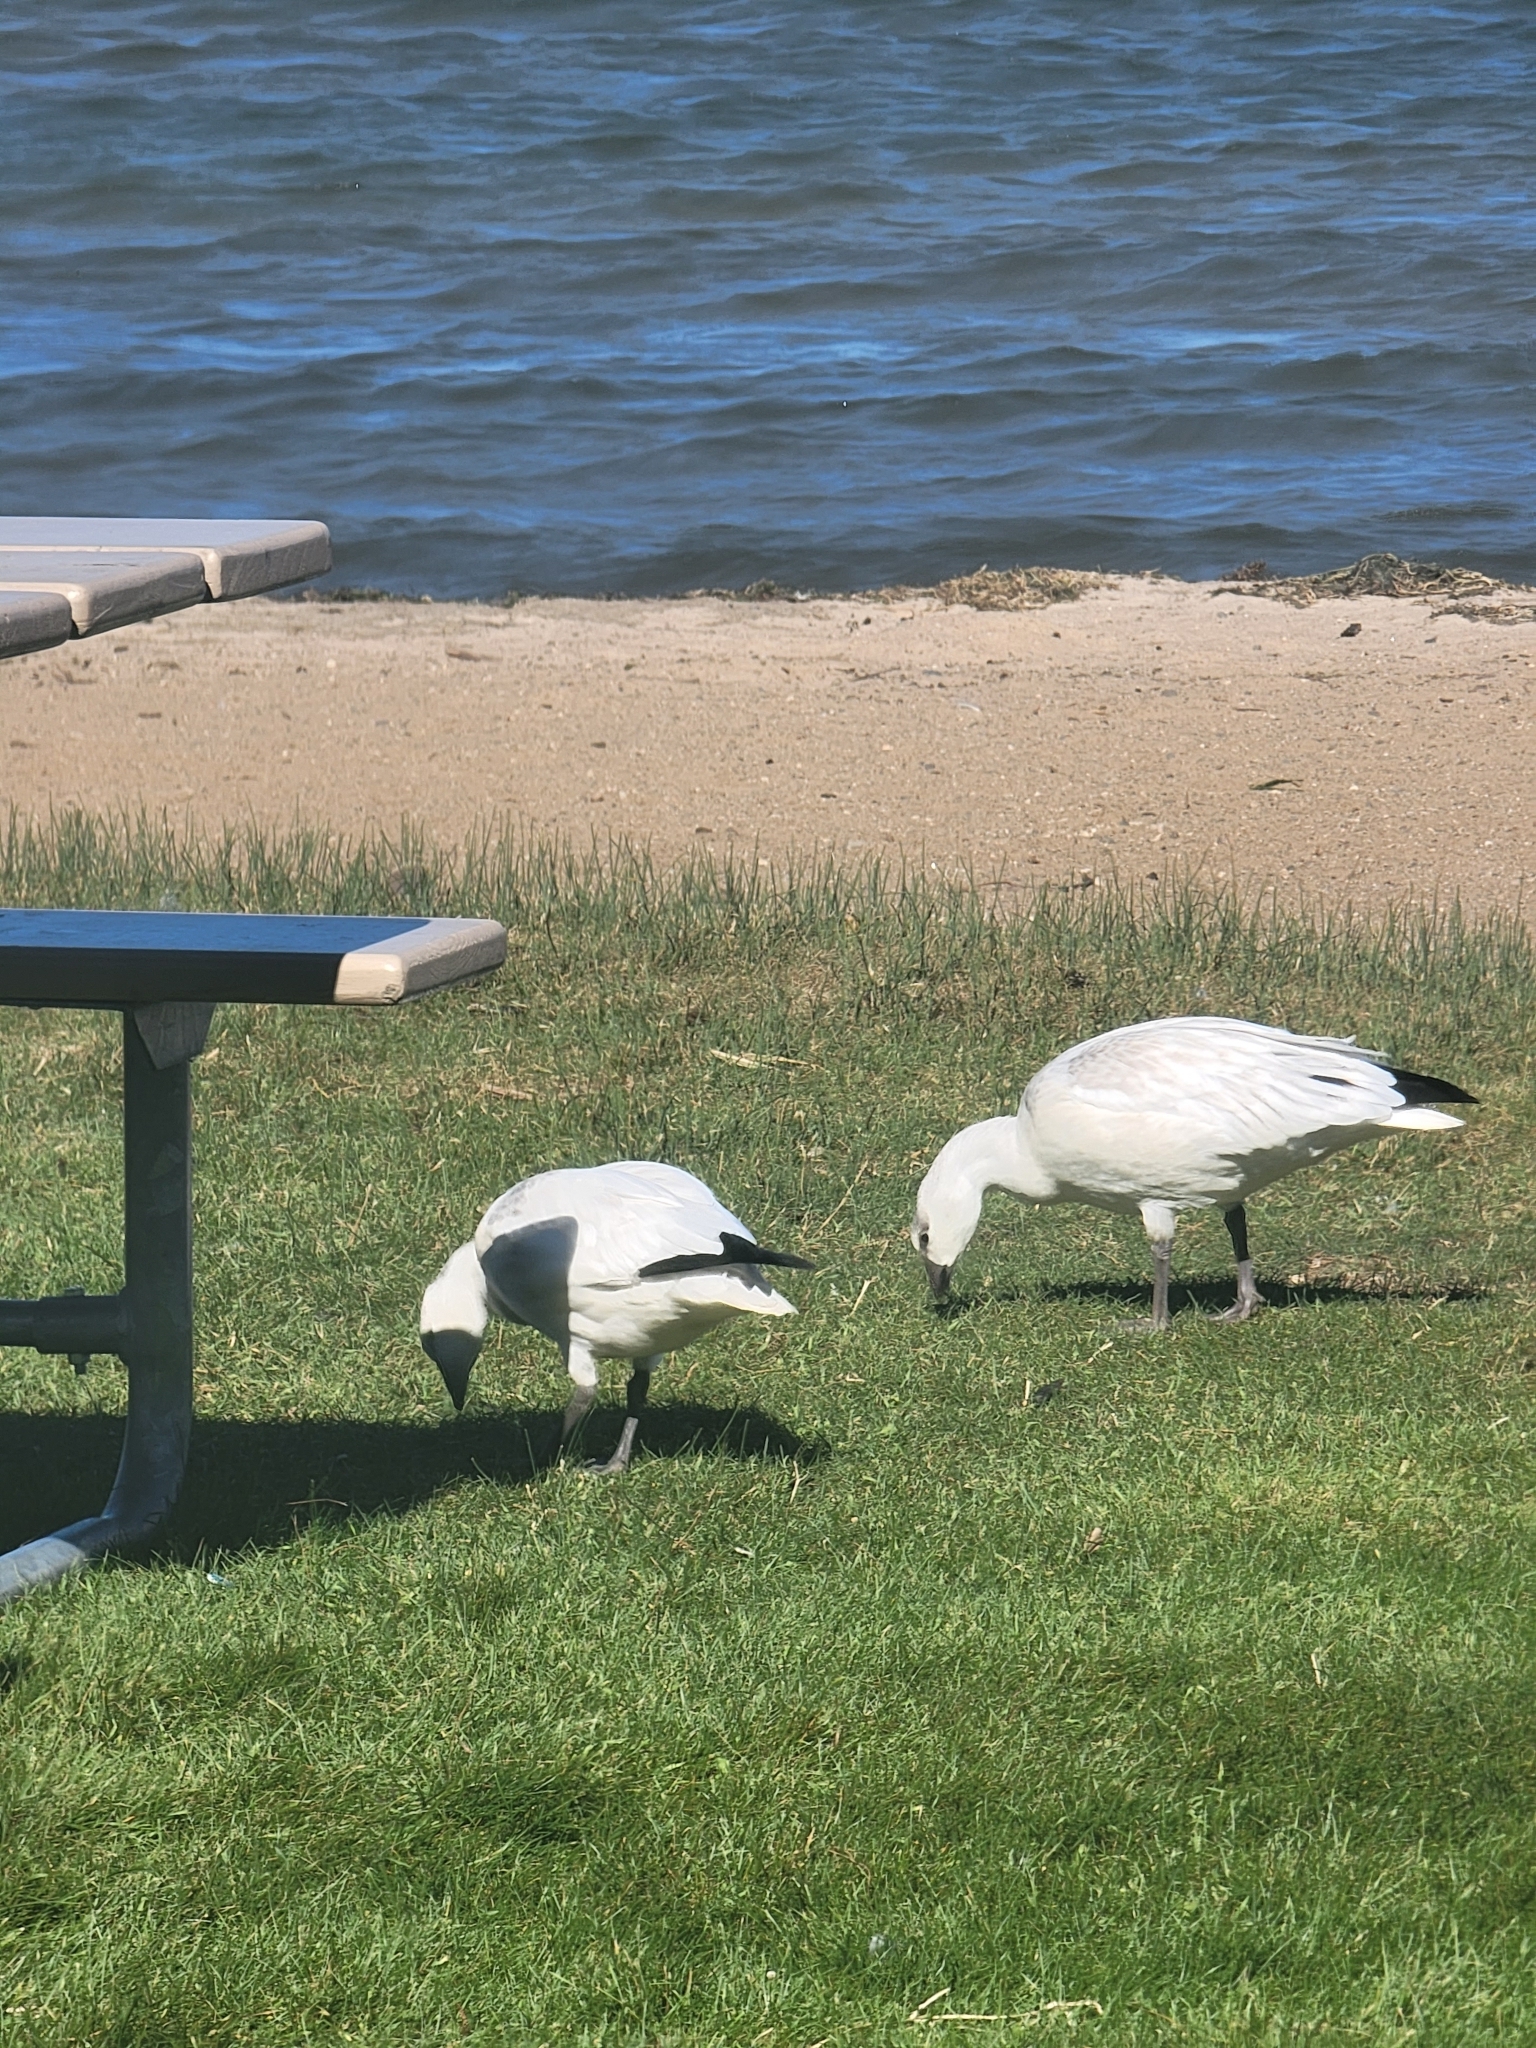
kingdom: Animalia
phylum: Chordata
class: Aves
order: Anseriformes
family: Anatidae
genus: Anser
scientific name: Anser caerulescens
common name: Snow goose
